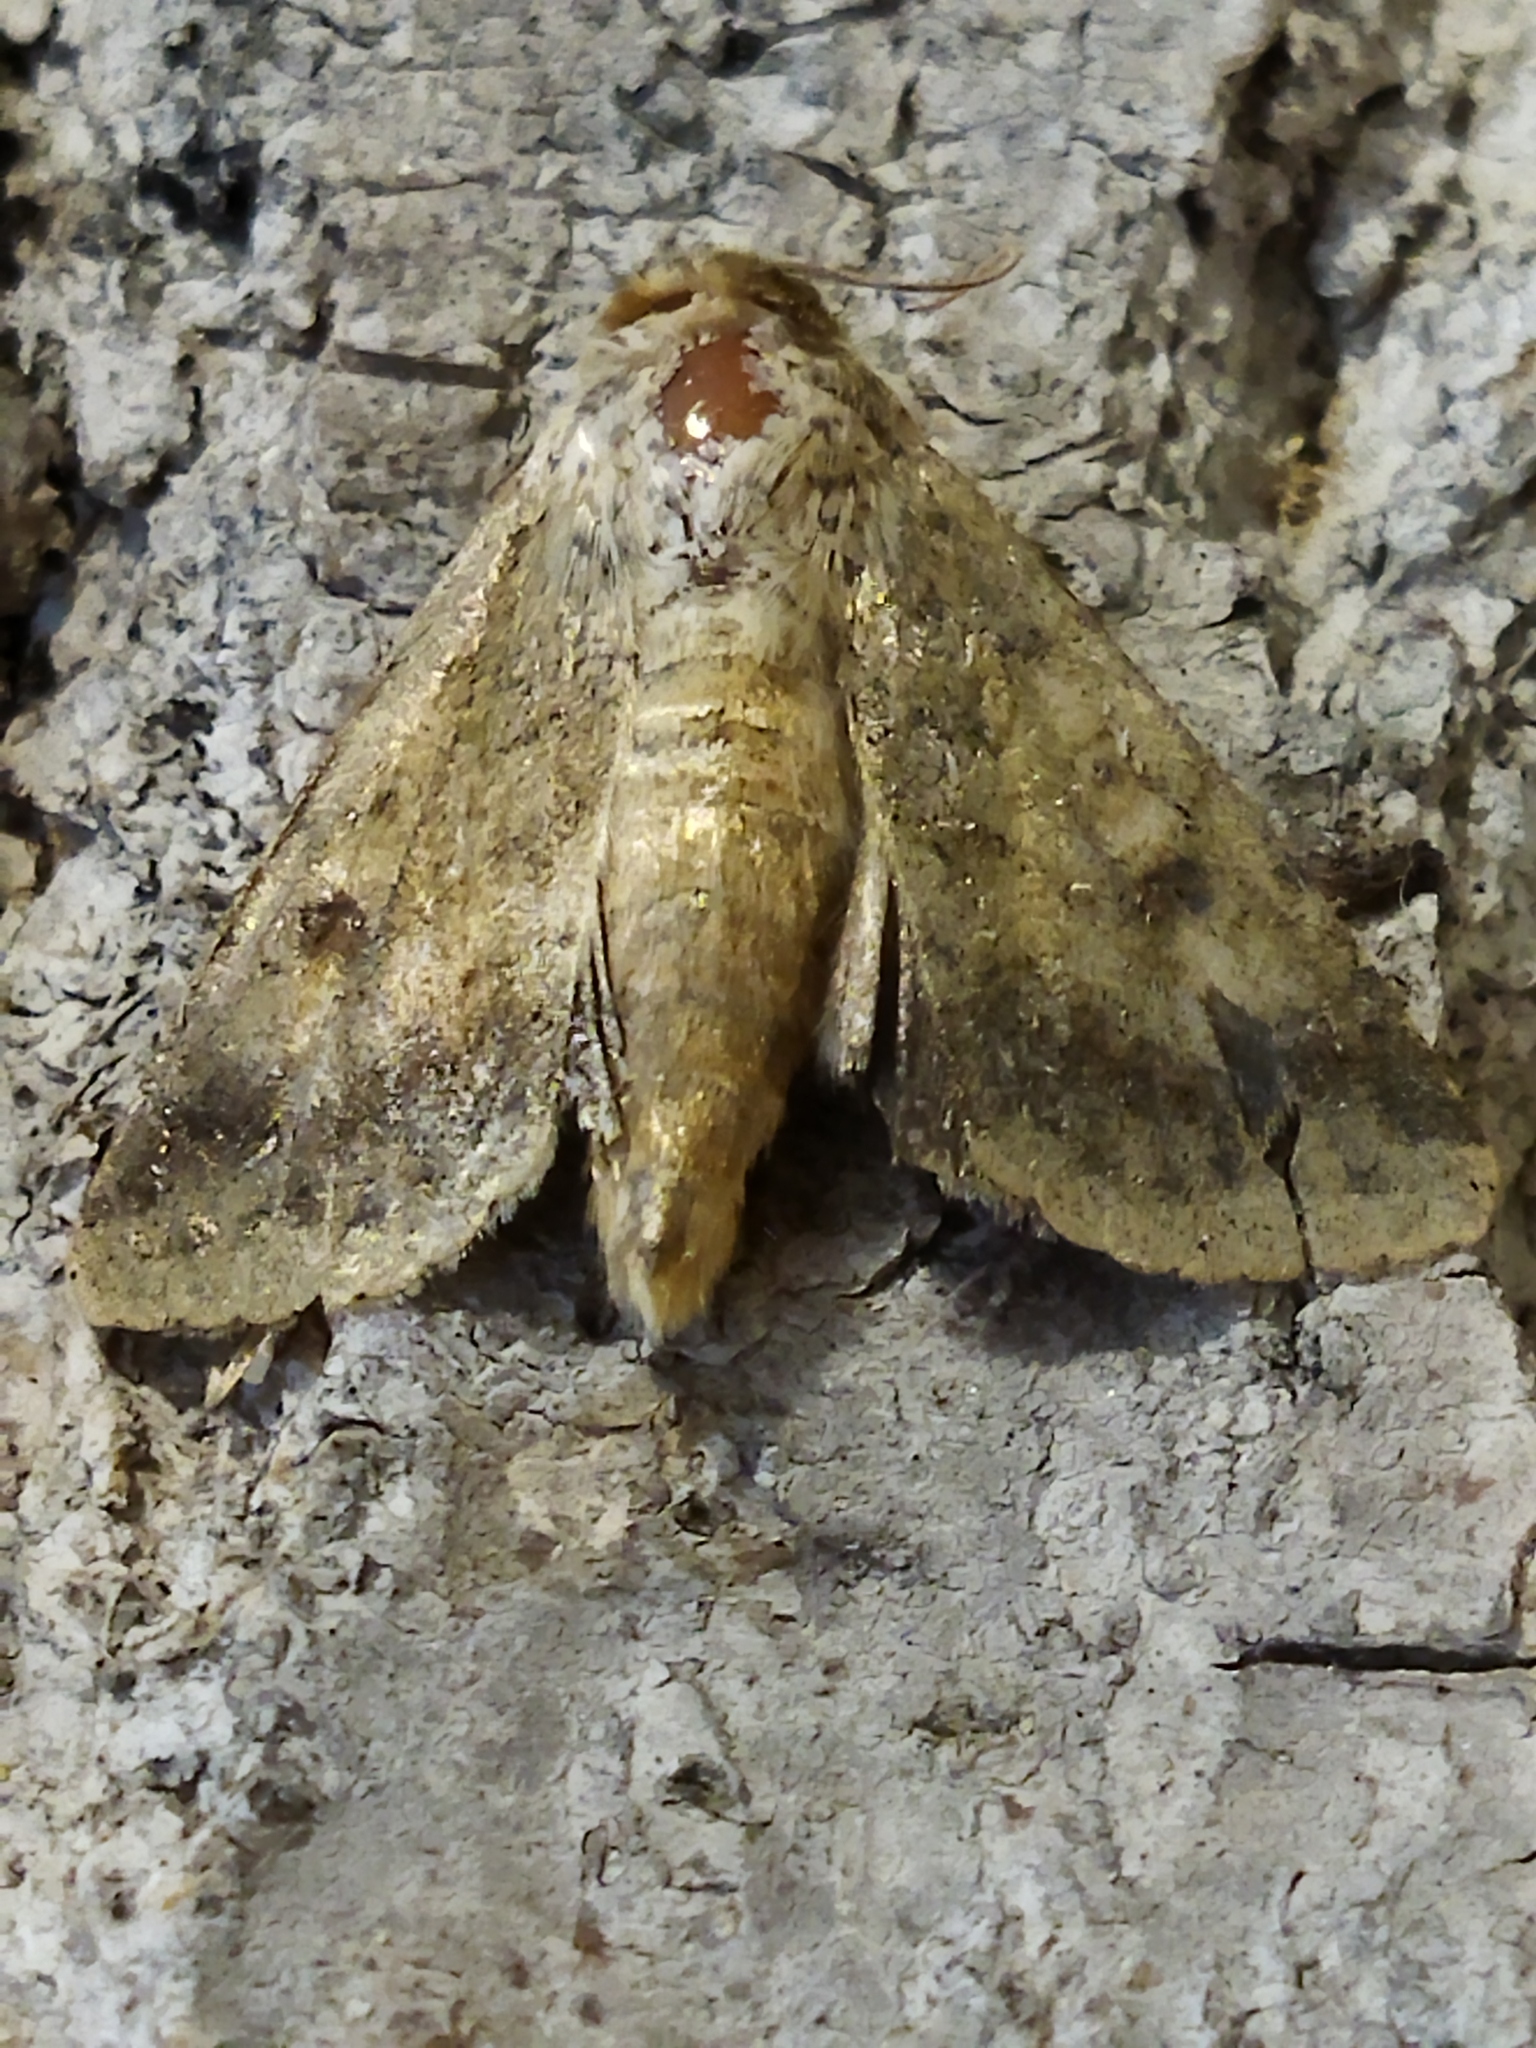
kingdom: Animalia
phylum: Arthropoda
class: Insecta
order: Lepidoptera
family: Noctuidae
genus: Helicoverpa
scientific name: Helicoverpa armigera
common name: Cotton bollworm
